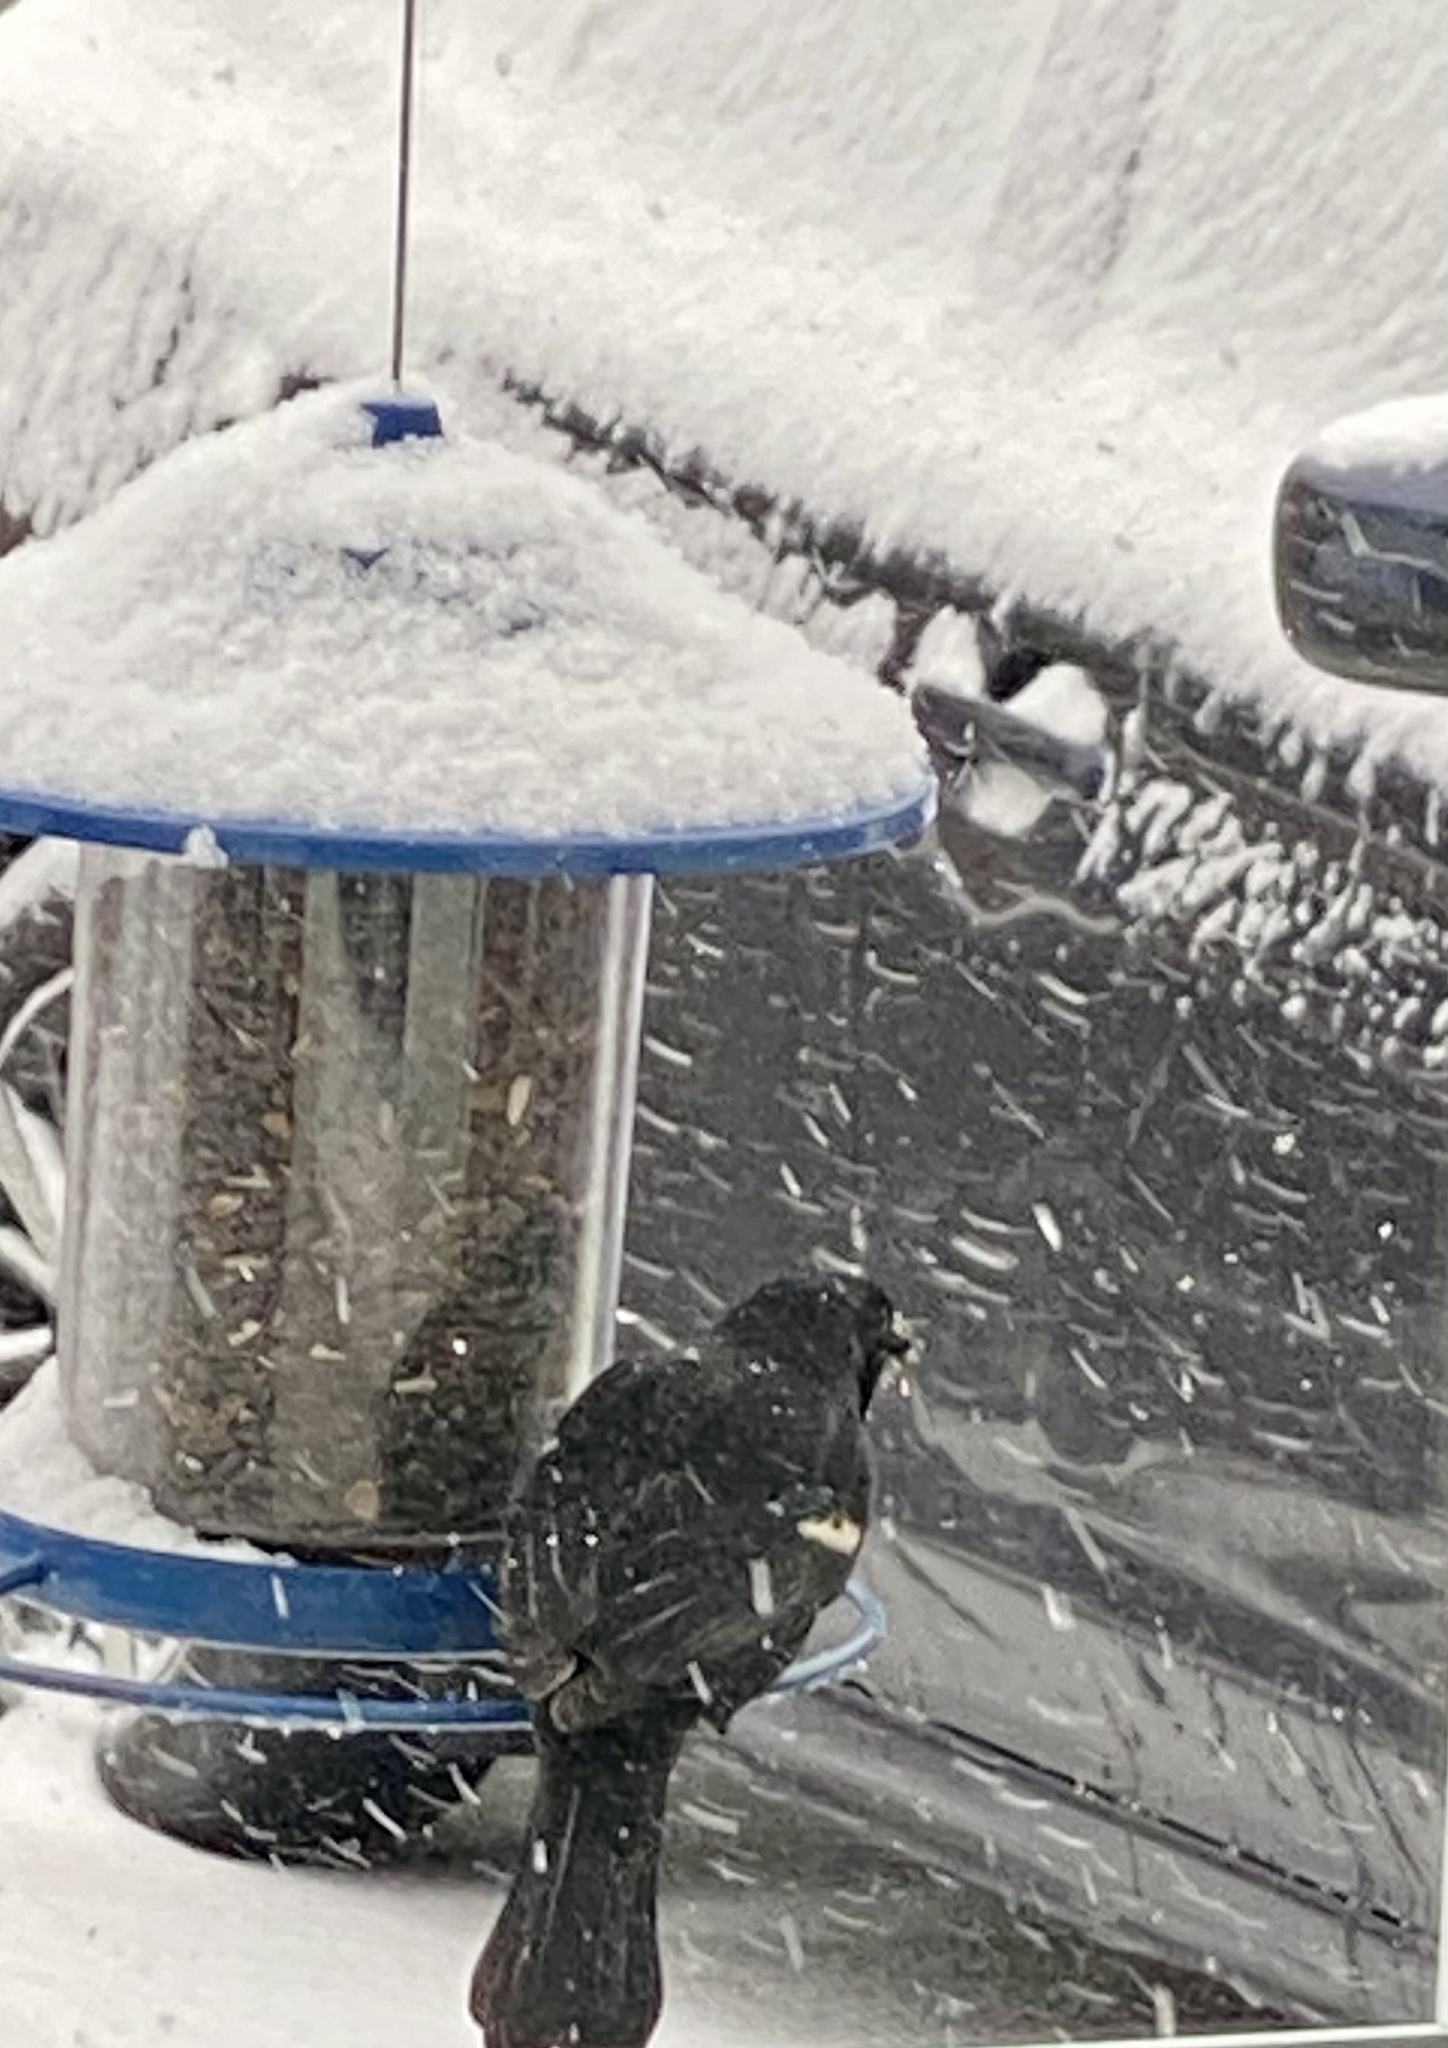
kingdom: Animalia
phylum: Chordata
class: Aves
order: Passeriformes
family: Icteridae
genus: Agelaius
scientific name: Agelaius phoeniceus
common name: Red-winged blackbird
